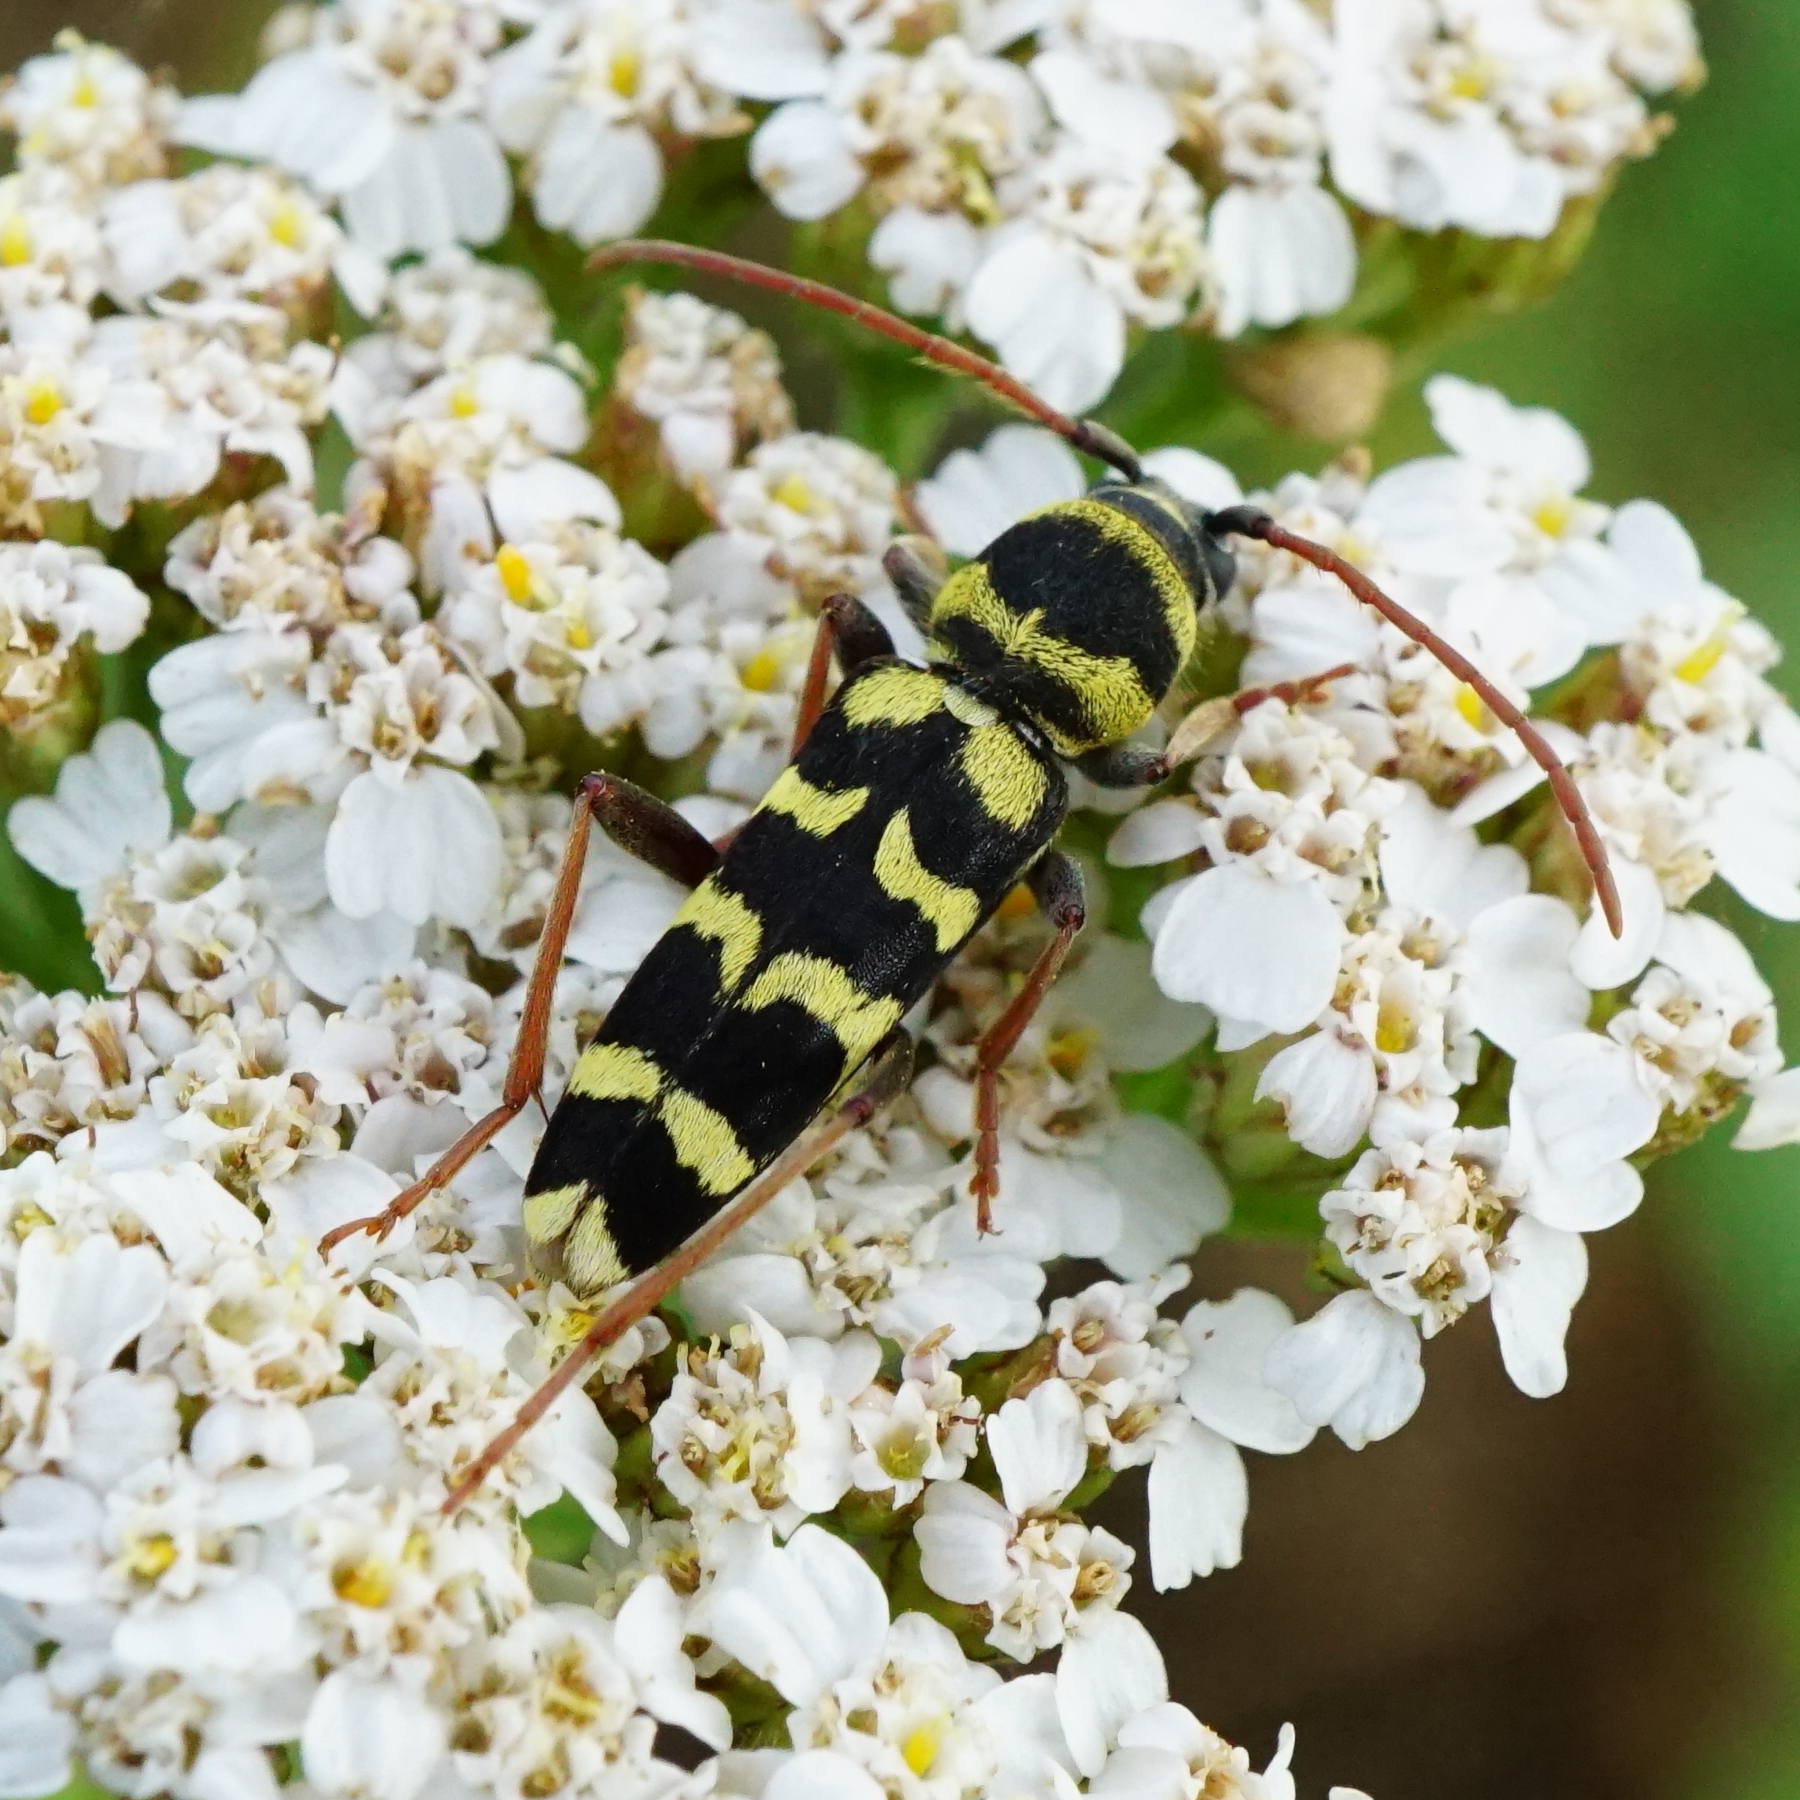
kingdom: Animalia
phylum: Arthropoda
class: Insecta
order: Coleoptera
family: Cerambycidae
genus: Plagionotus
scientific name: Plagionotus floralis
